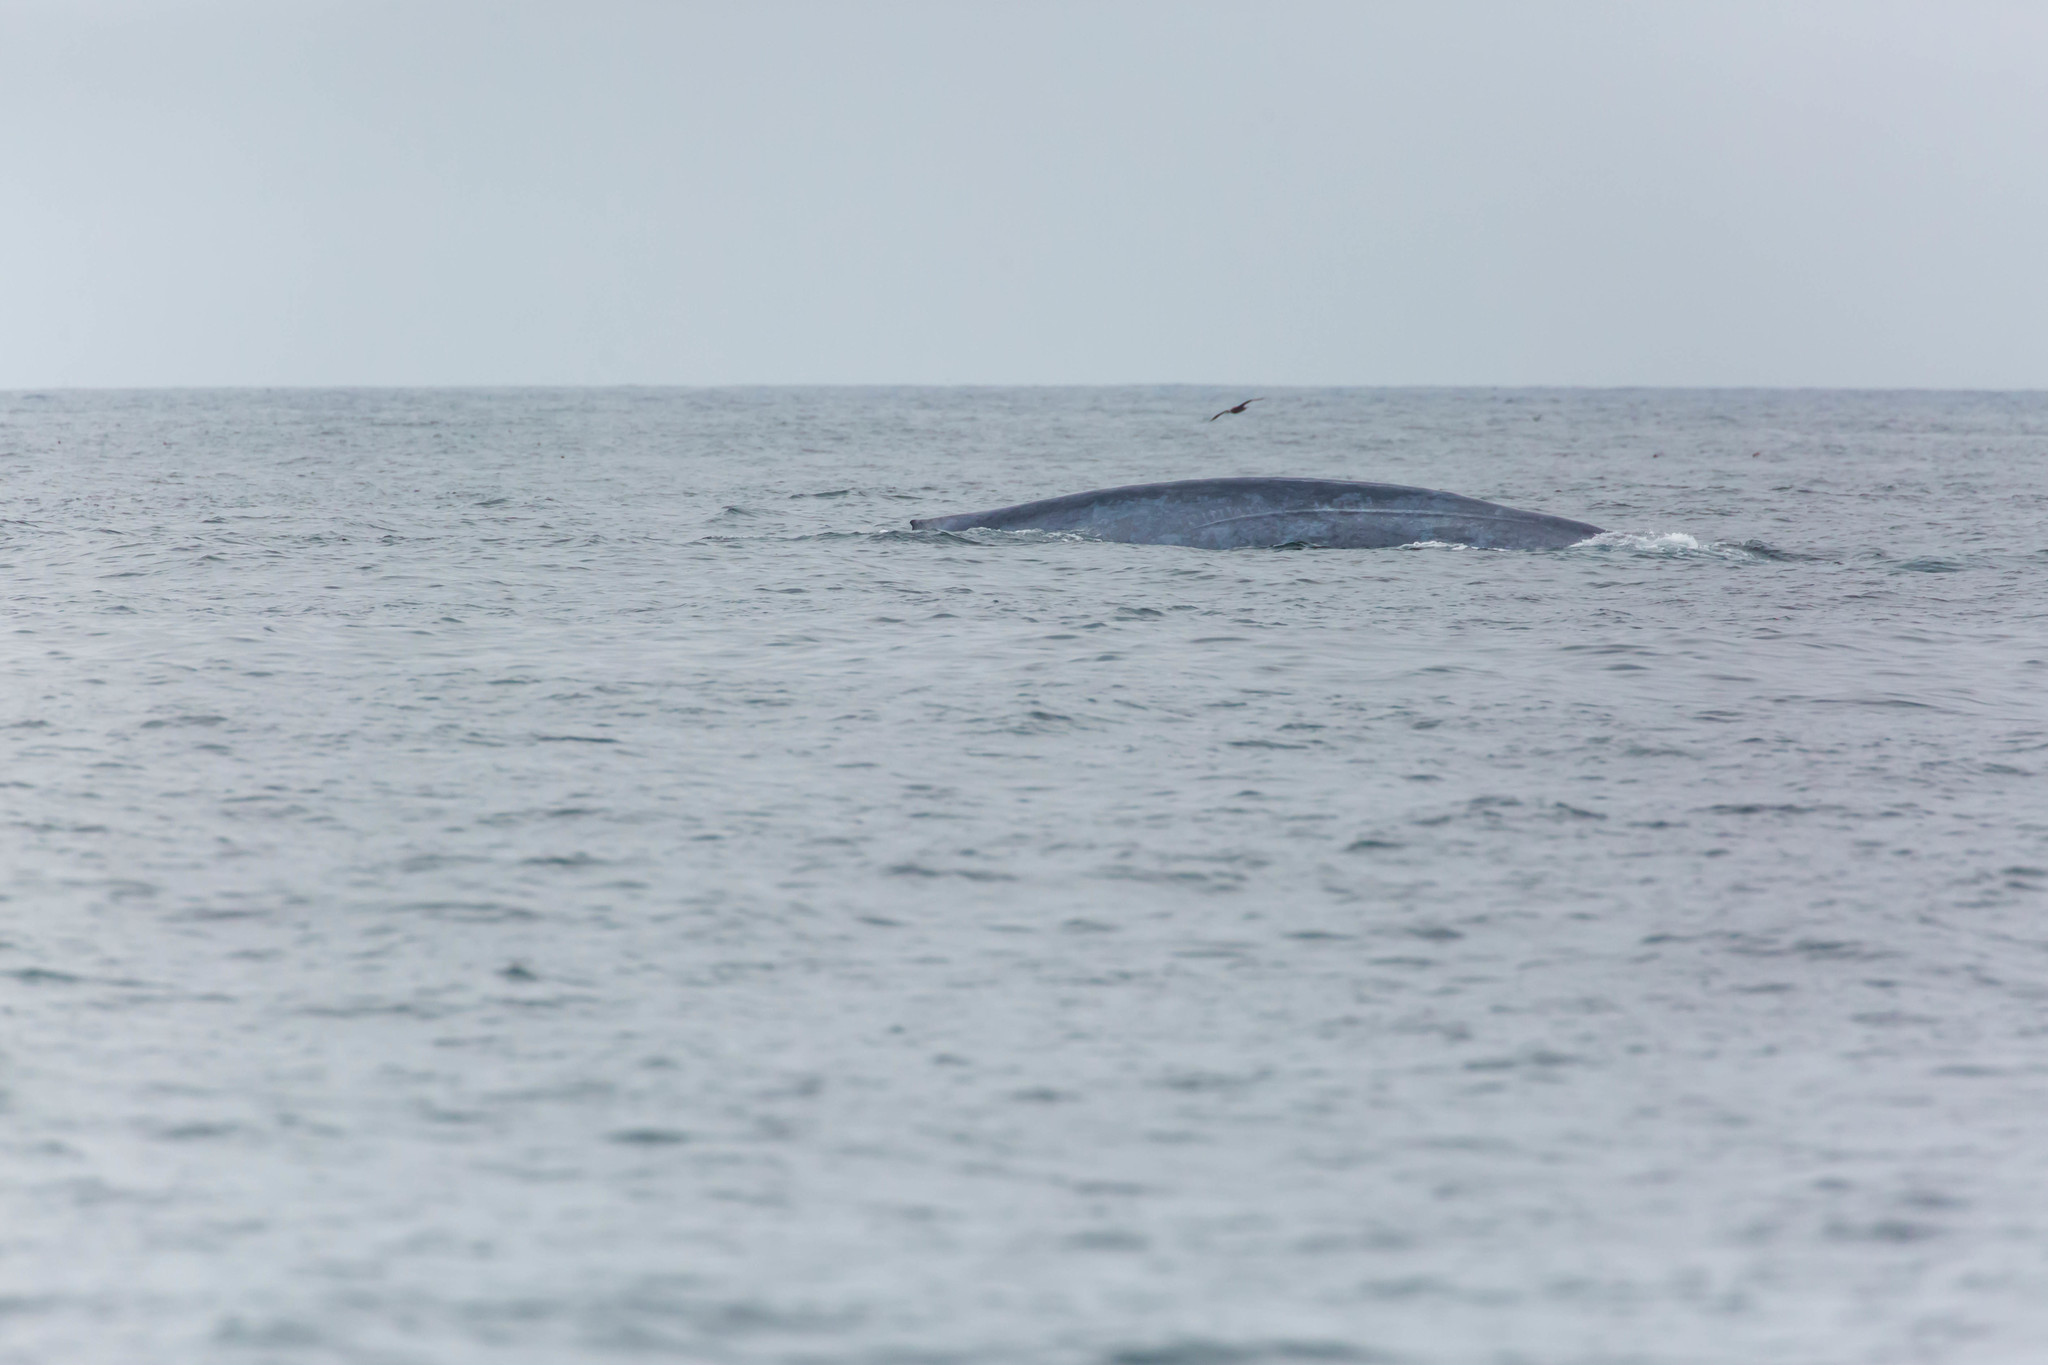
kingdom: Animalia
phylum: Chordata
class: Mammalia
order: Cetacea
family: Balaenopteridae
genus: Balaenoptera
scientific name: Balaenoptera musculus
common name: Blue whale
